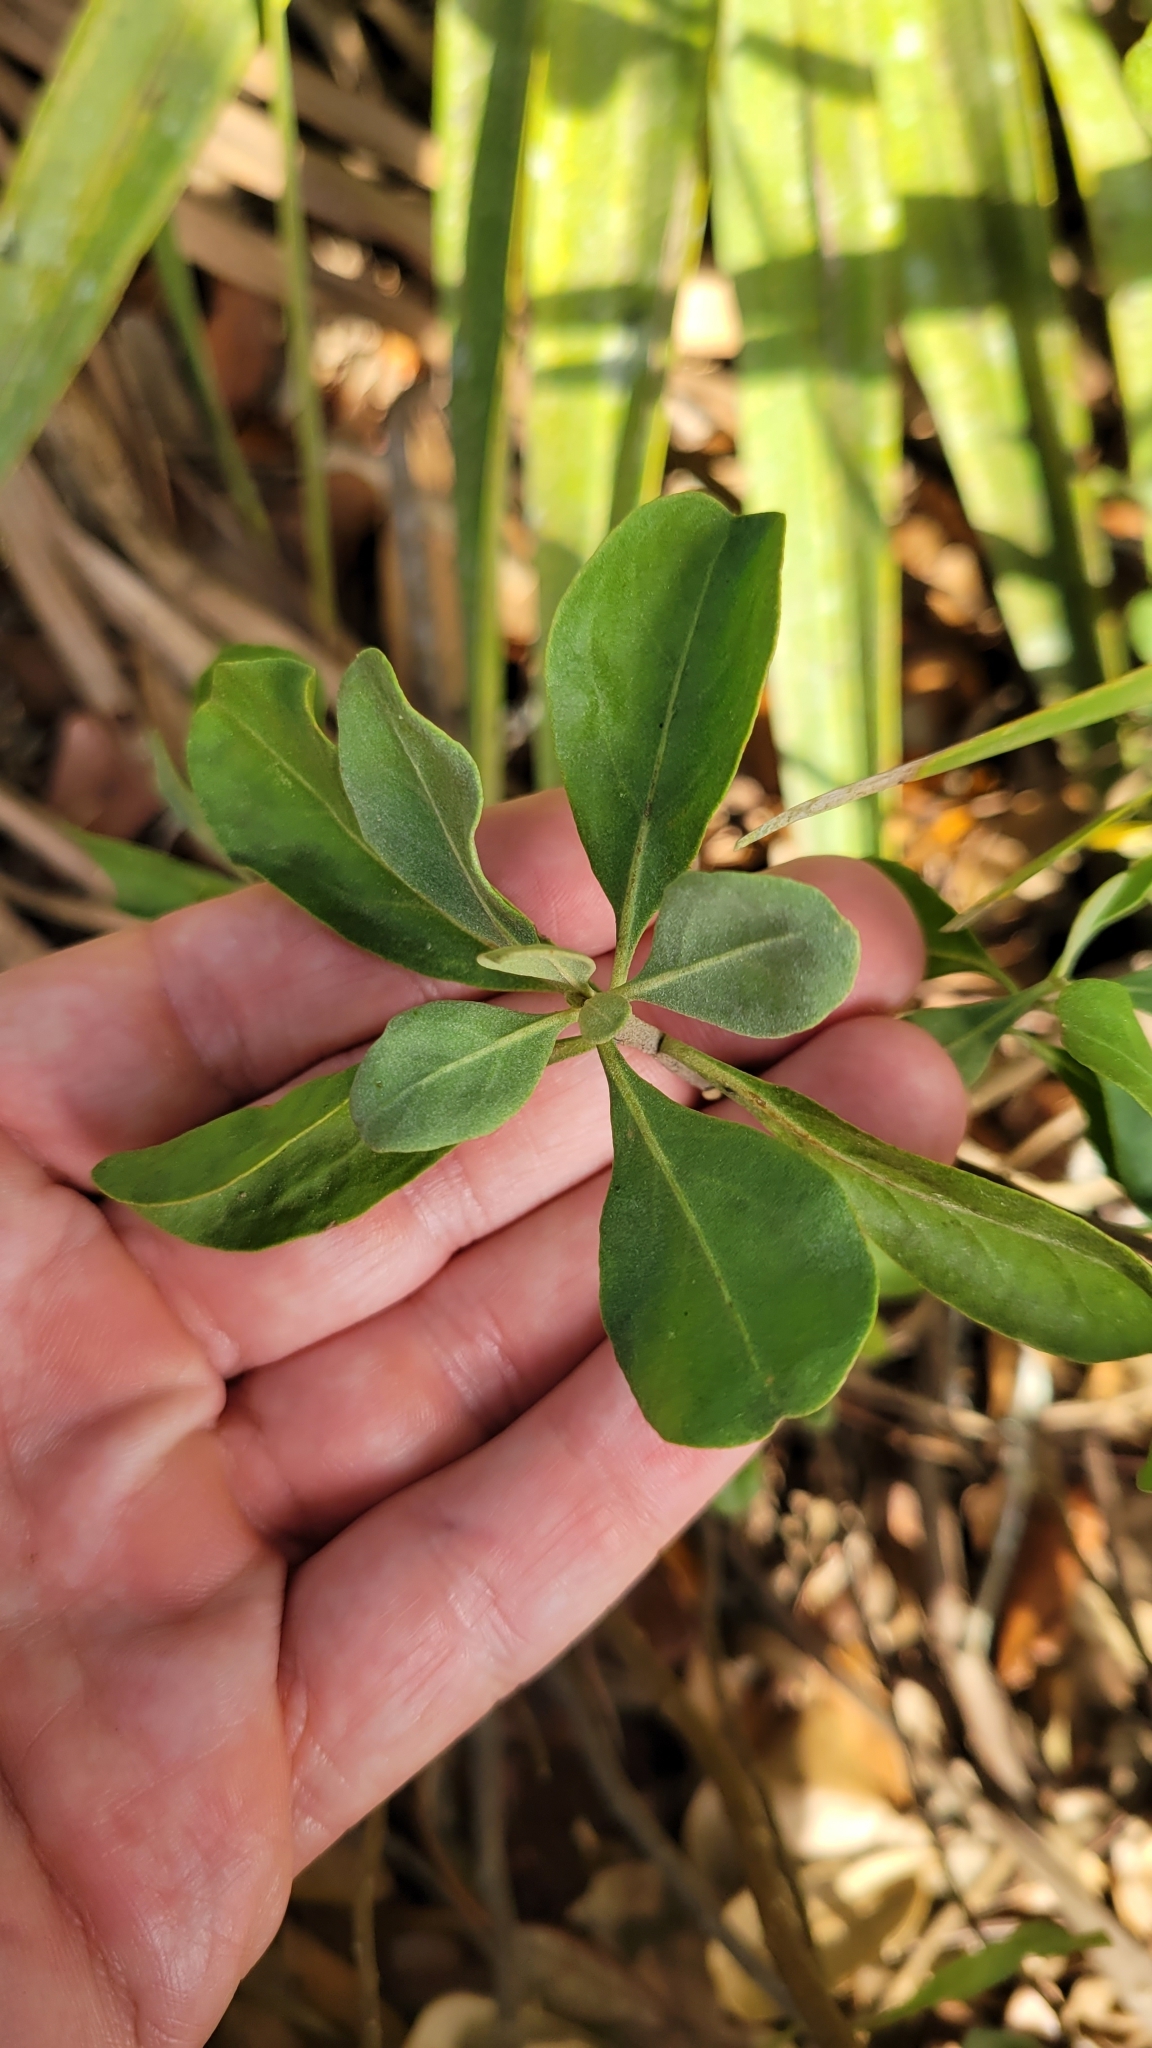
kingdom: Plantae
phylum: Tracheophyta
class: Magnoliopsida
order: Asterales
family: Asteraceae
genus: Garberia
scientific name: Garberia heterophylla
